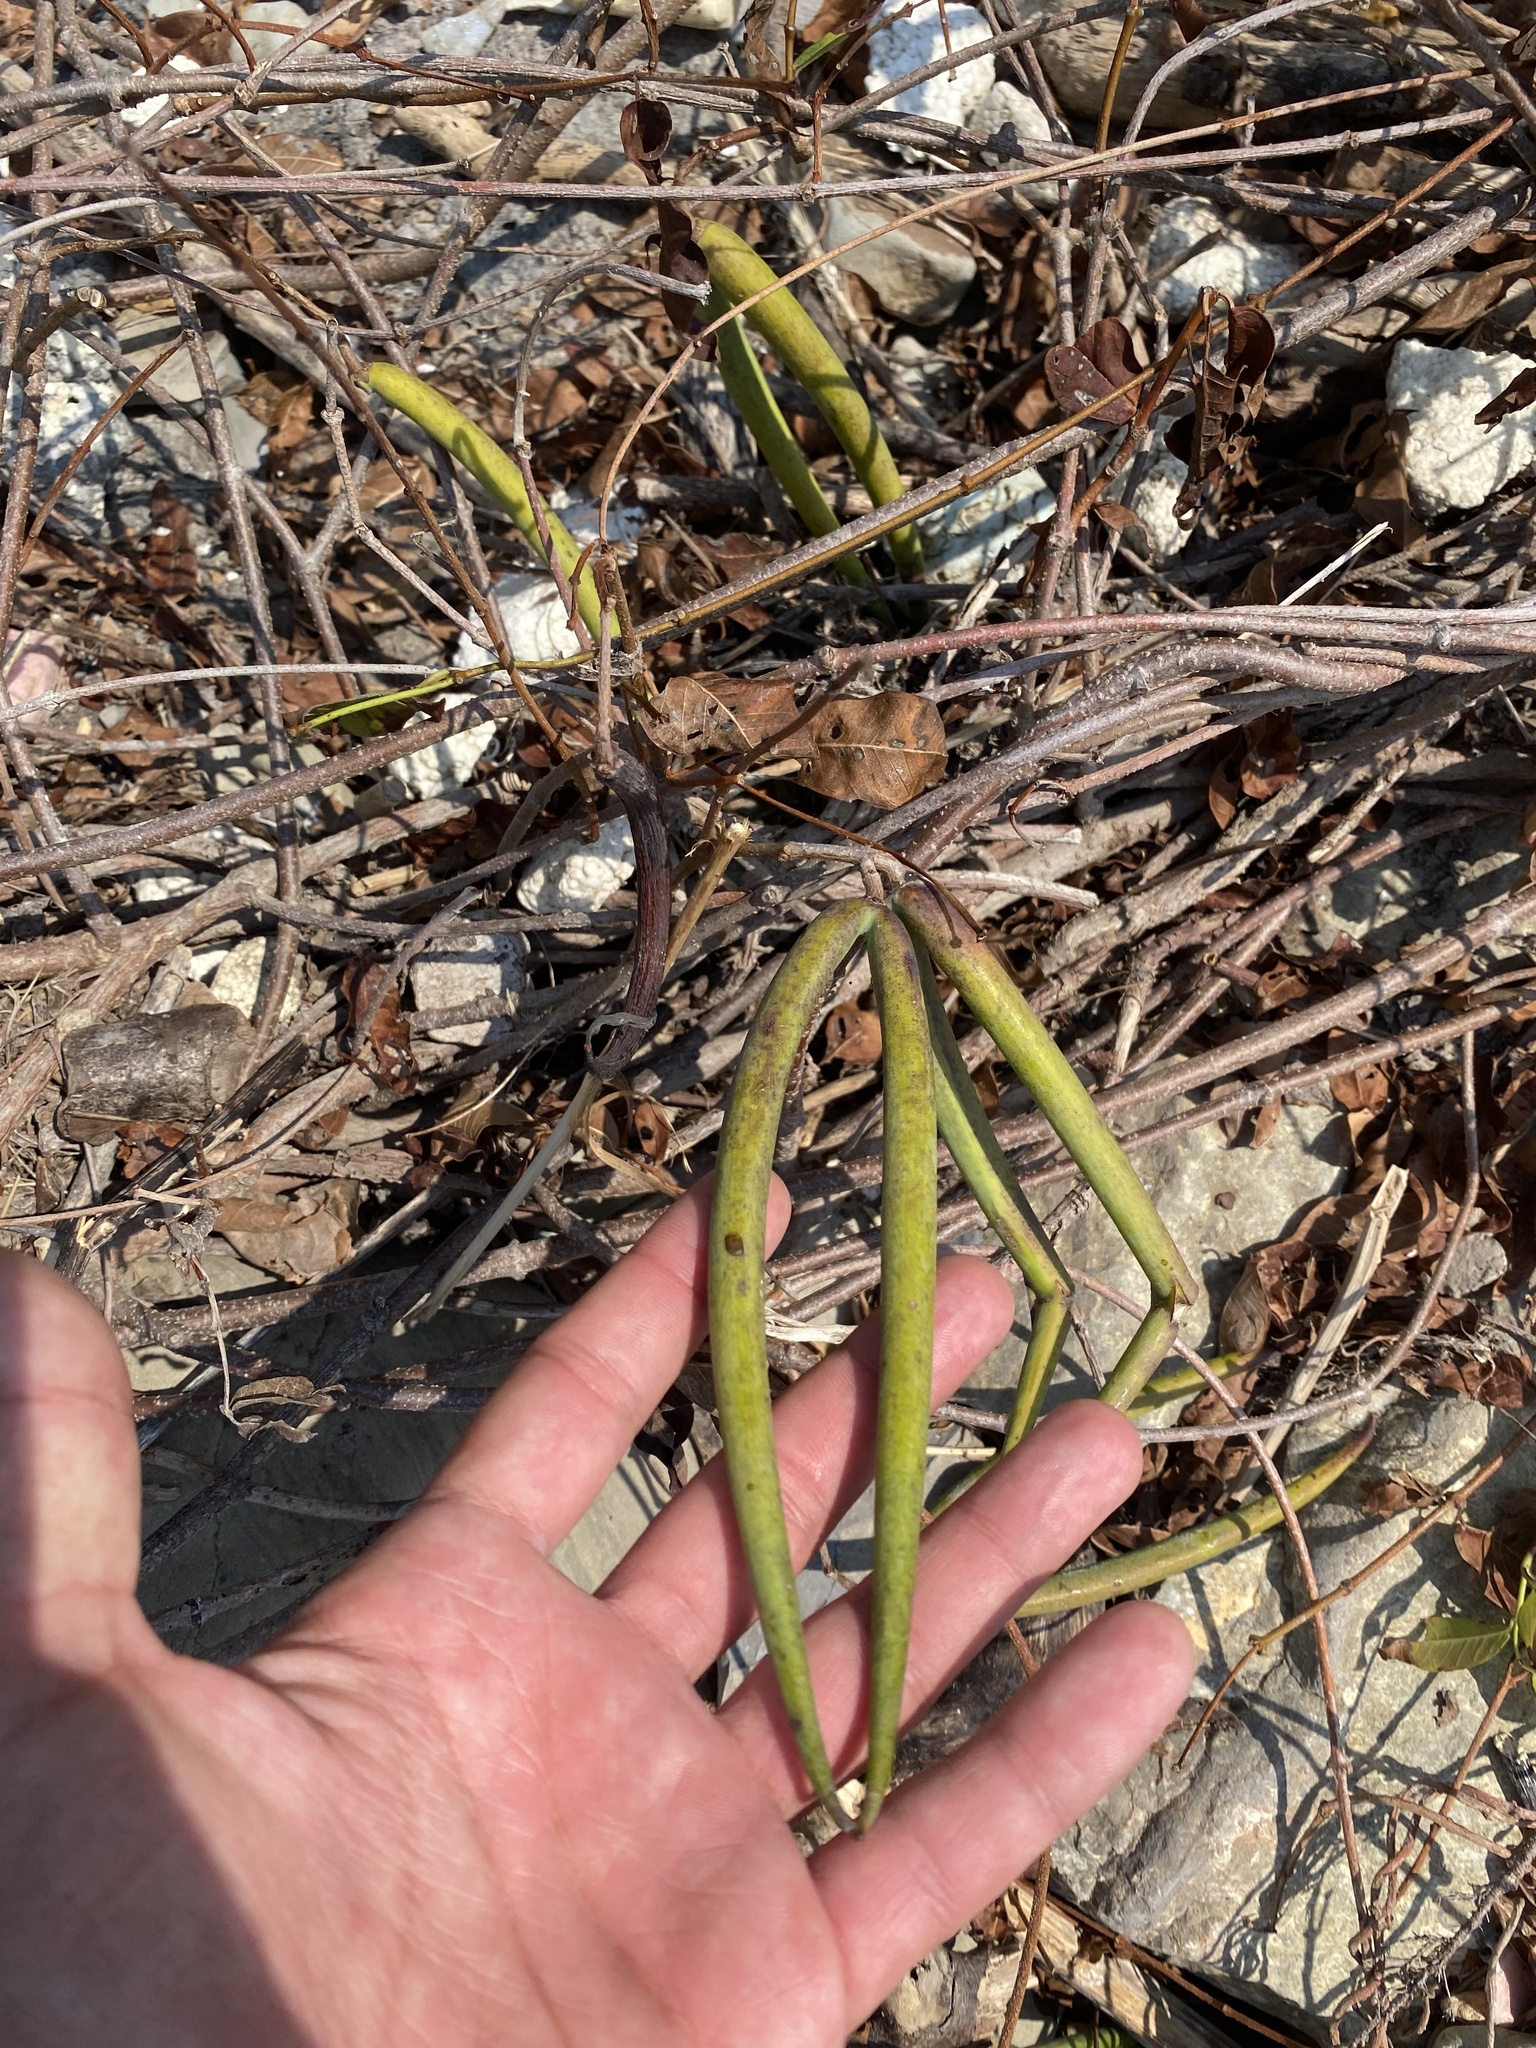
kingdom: Plantae
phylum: Tracheophyta
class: Magnoliopsida
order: Gentianales
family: Apocynaceae
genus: Periploca
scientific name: Periploca graeca
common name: Silkvine
